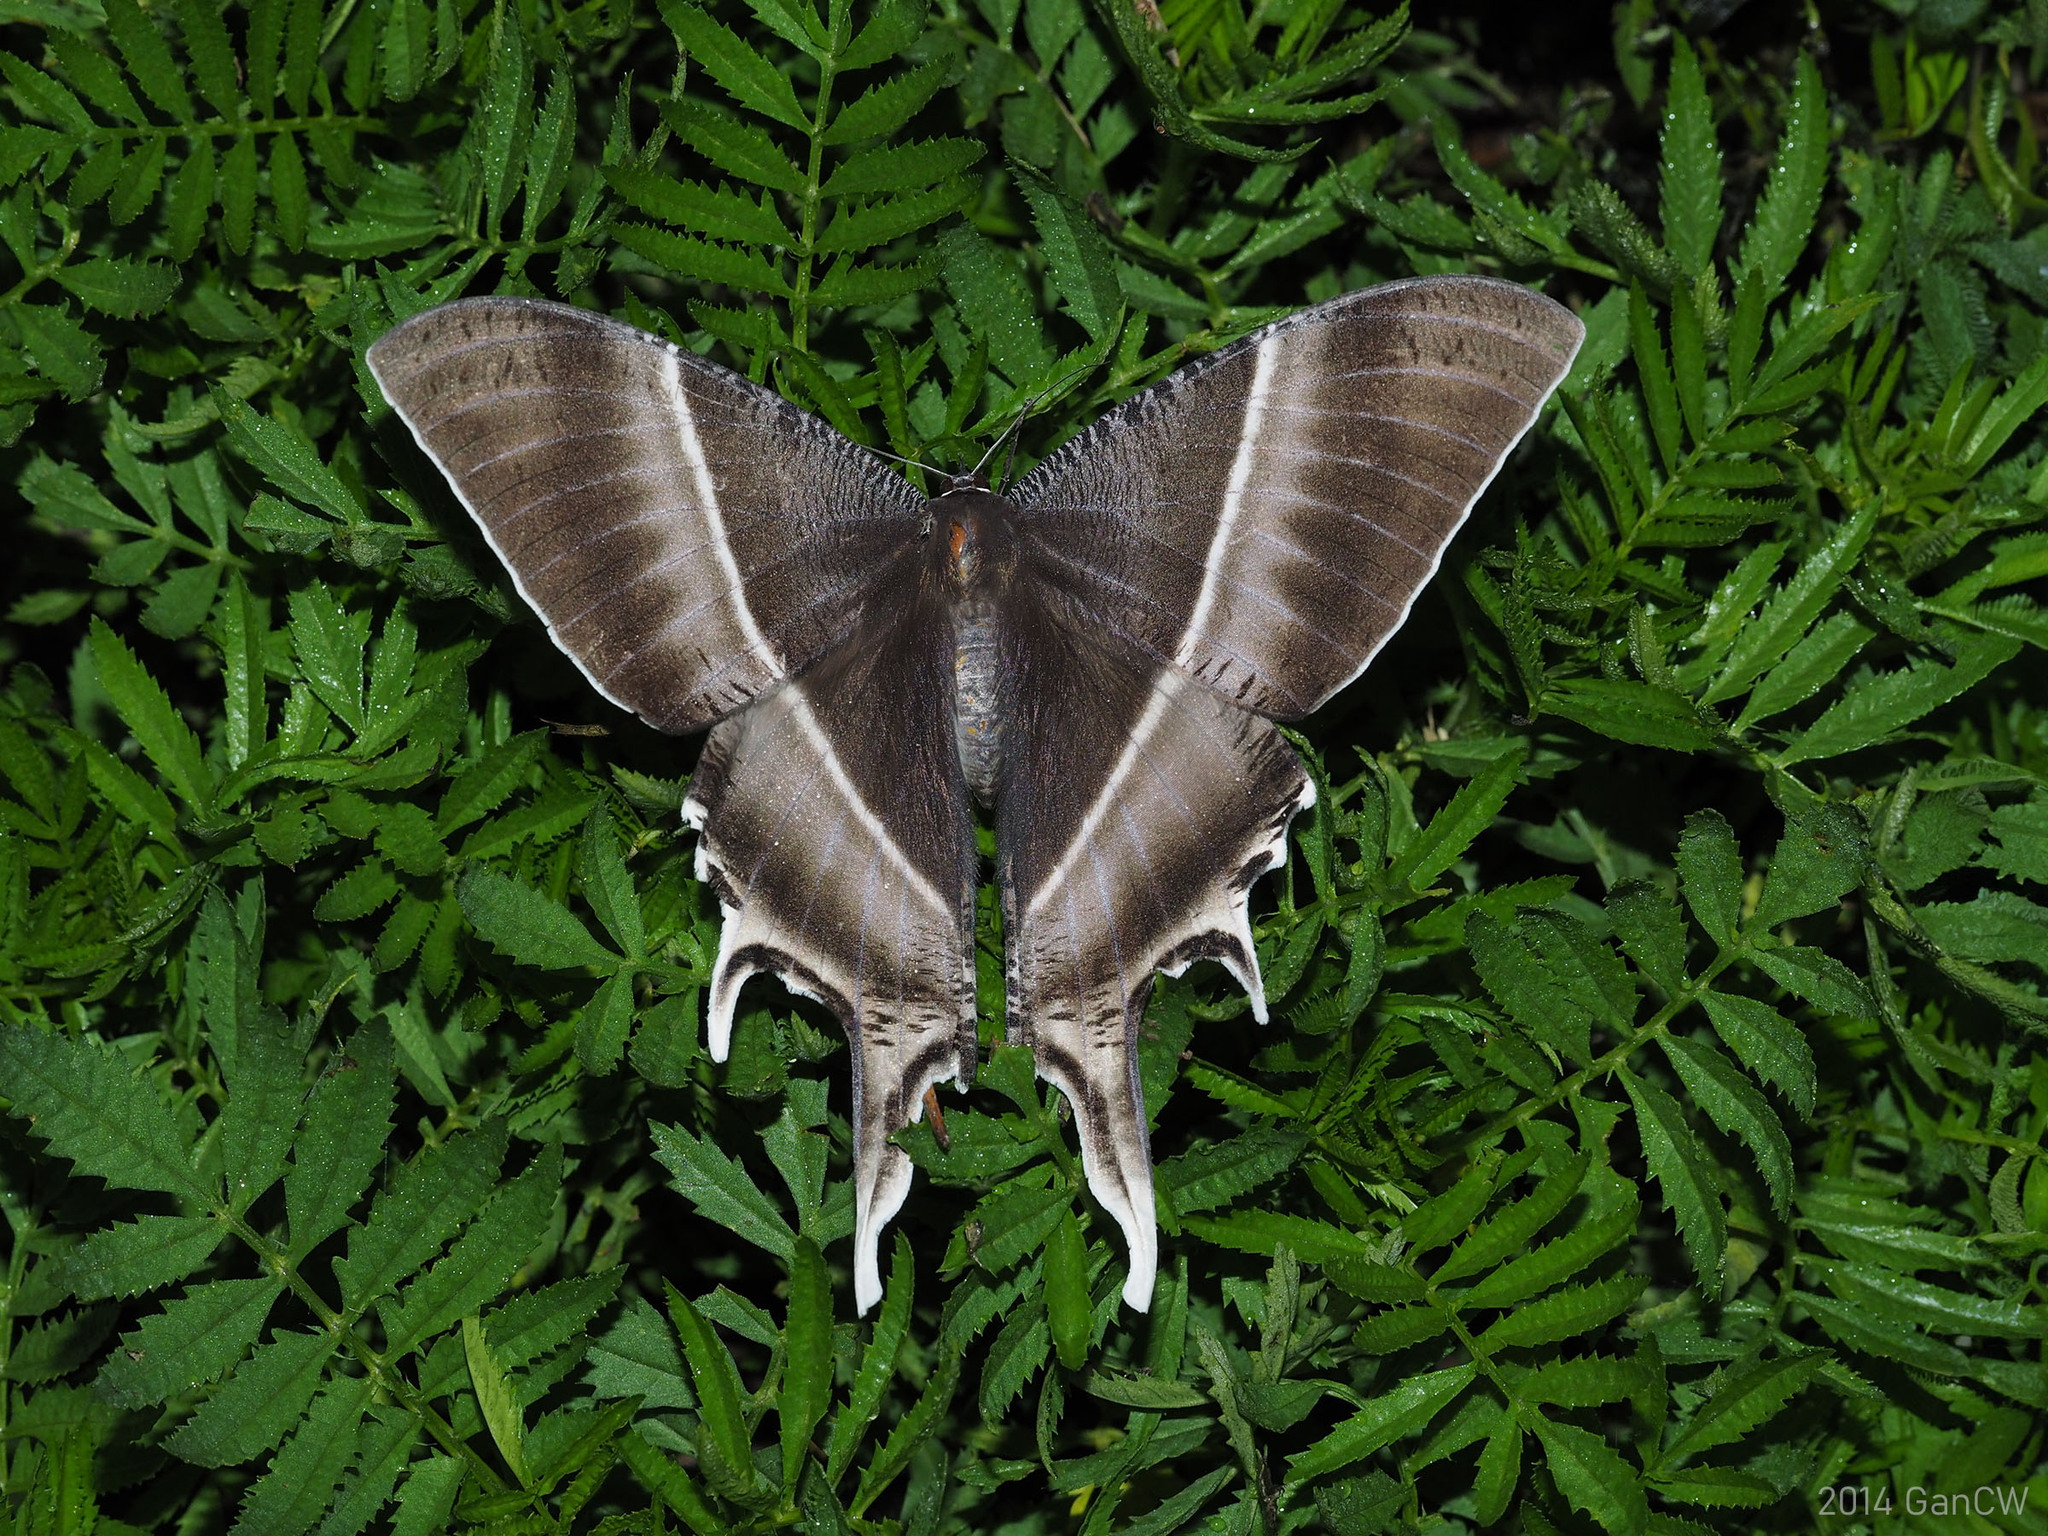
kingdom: Animalia
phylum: Arthropoda
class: Insecta
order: Lepidoptera
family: Uraniidae
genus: Lyssa
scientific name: Lyssa zampa
